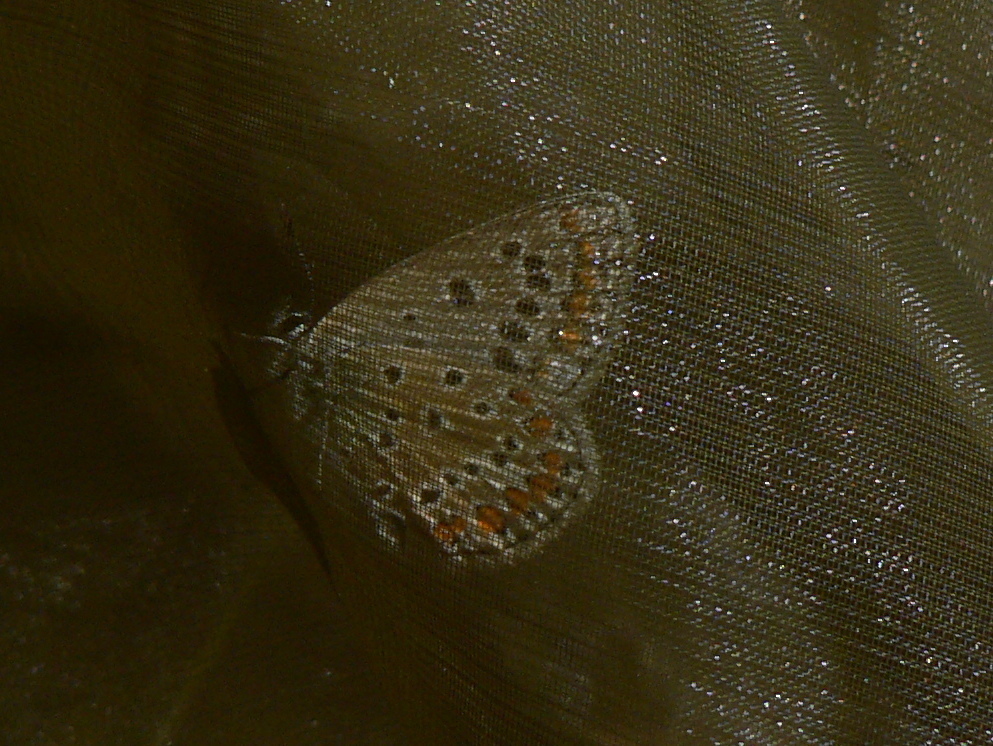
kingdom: Animalia
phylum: Arthropoda
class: Insecta
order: Lepidoptera
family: Lycaenidae
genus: Polyommatus
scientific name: Polyommatus icarus
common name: Common blue
